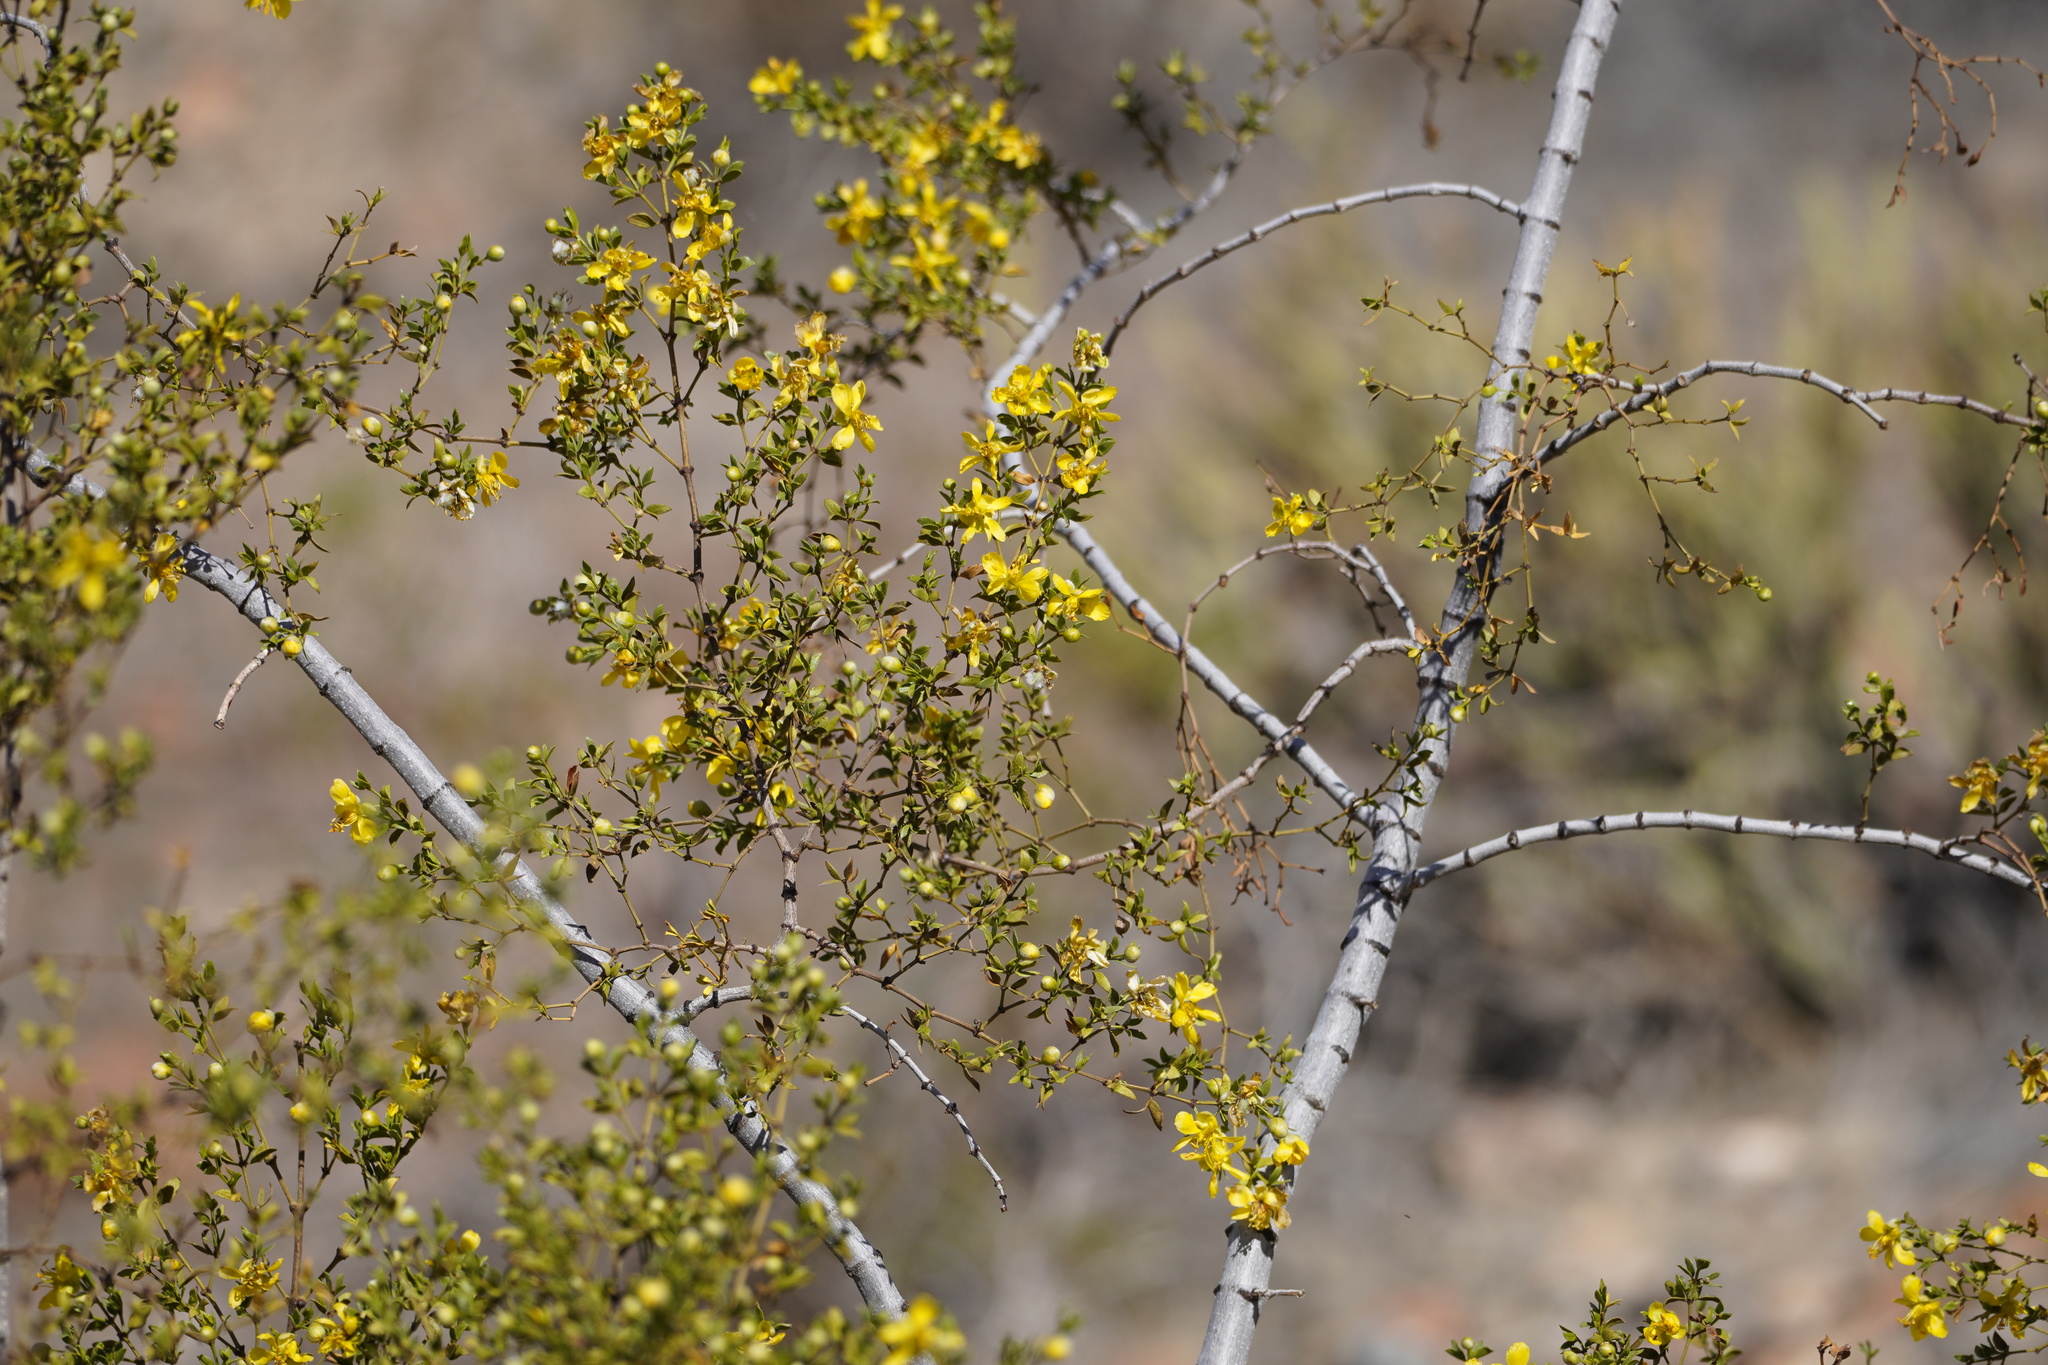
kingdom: Plantae
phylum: Tracheophyta
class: Magnoliopsida
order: Zygophyllales
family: Zygophyllaceae
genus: Larrea
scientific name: Larrea tridentata
